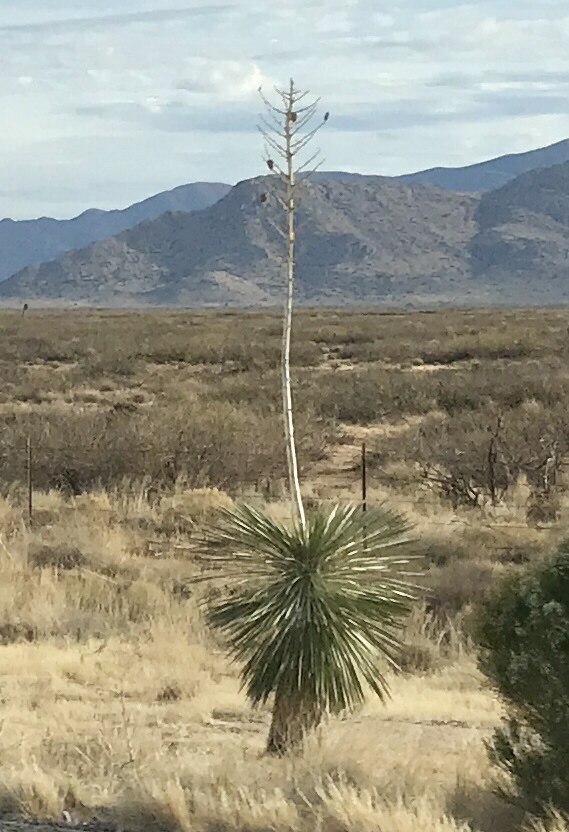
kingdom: Plantae
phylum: Tracheophyta
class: Liliopsida
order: Asparagales
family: Asparagaceae
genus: Yucca
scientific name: Yucca elata
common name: Palmella
